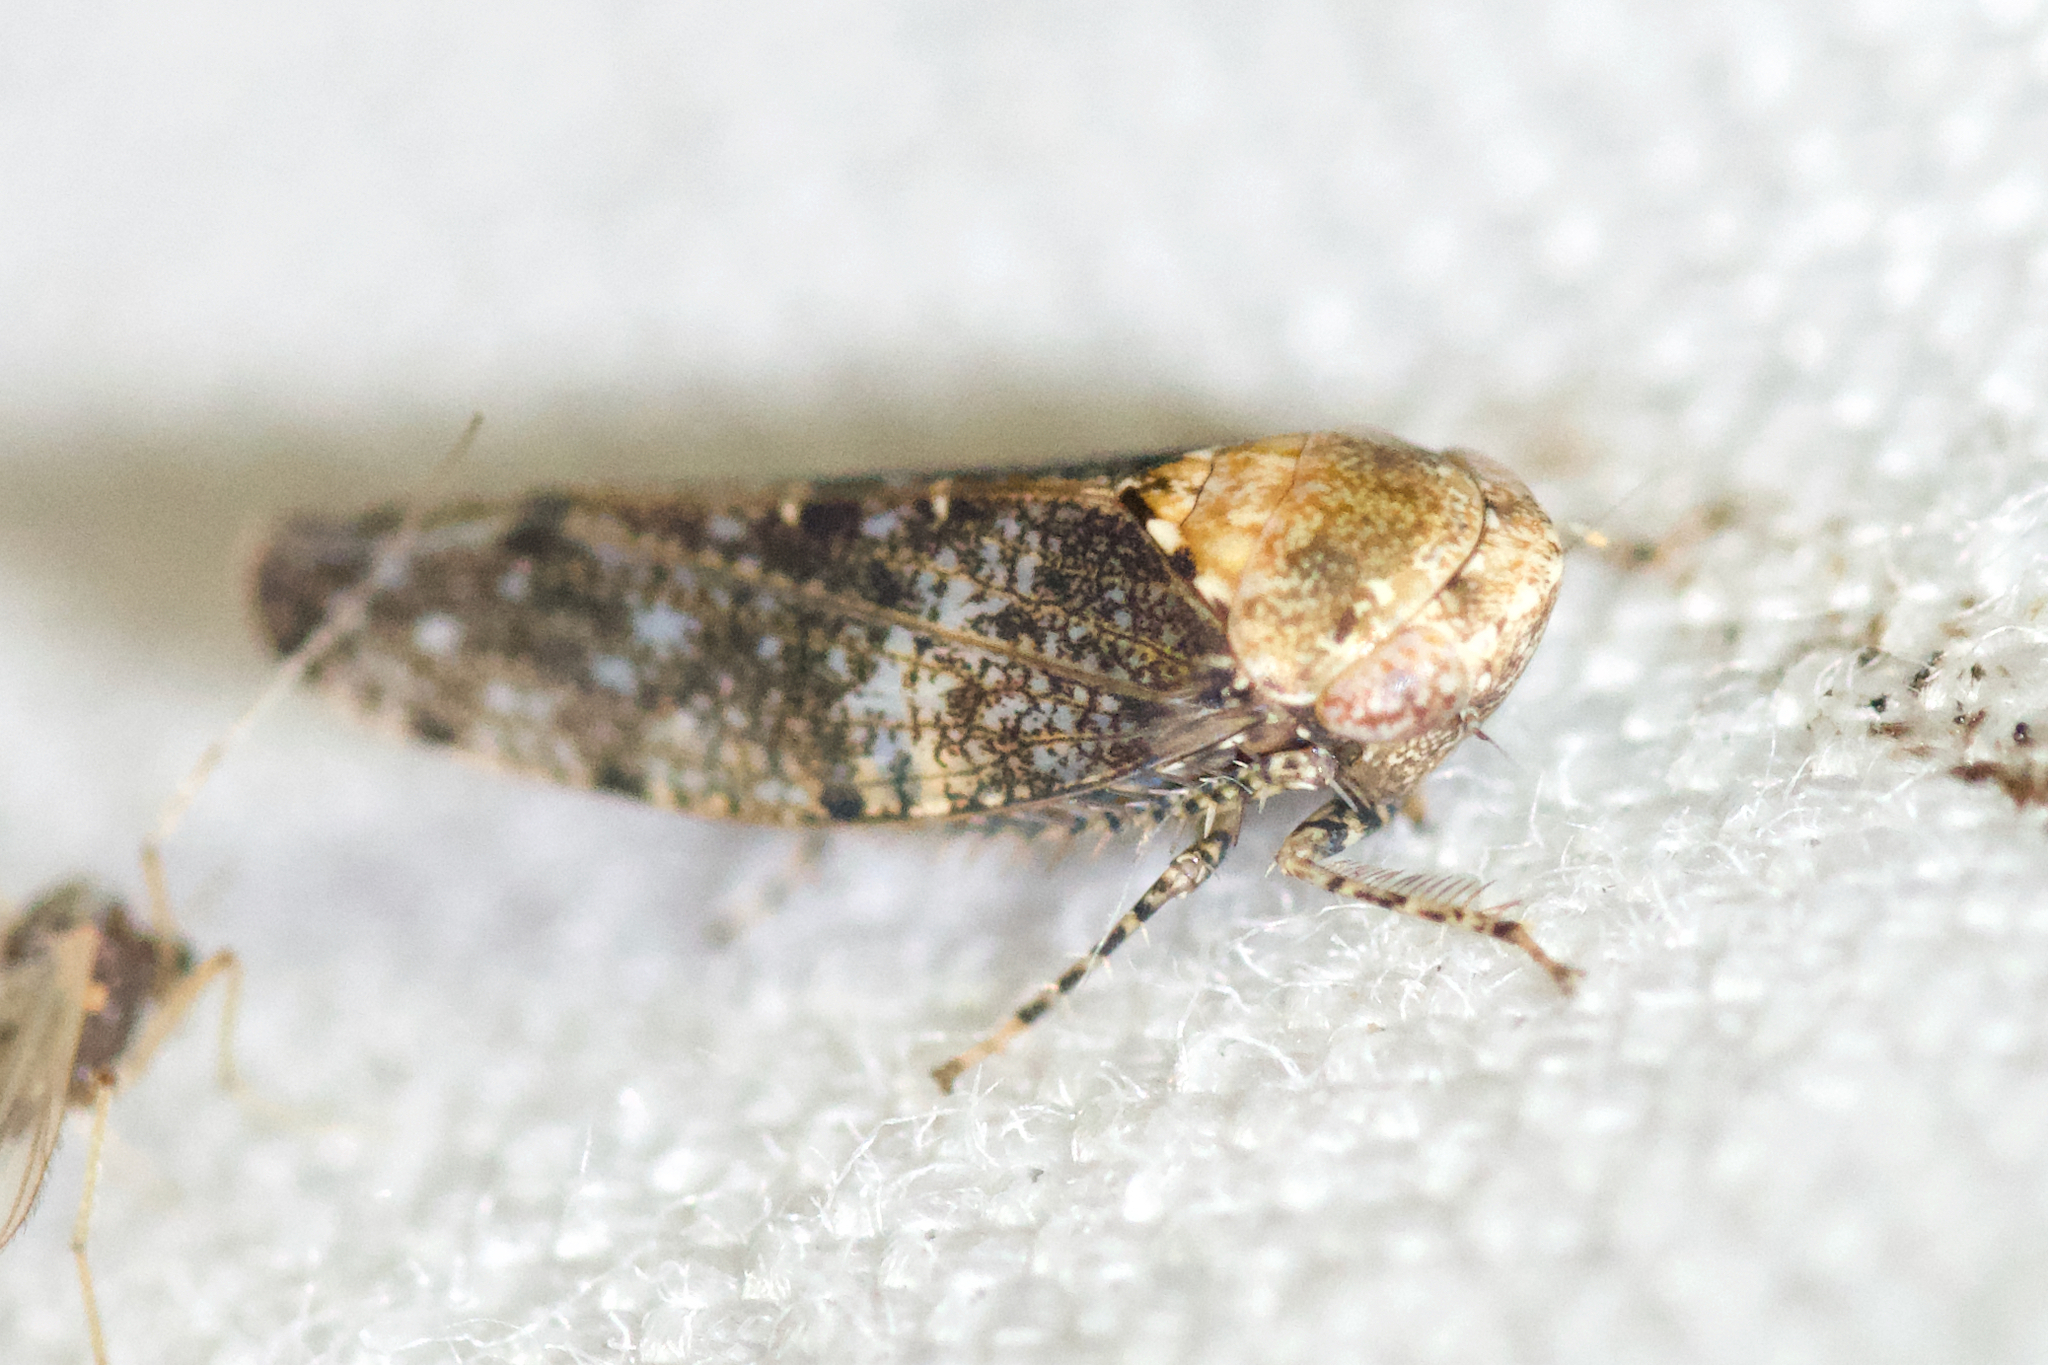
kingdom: Animalia
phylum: Arthropoda
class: Insecta
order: Hemiptera
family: Cicadellidae
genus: Paraphlepsius
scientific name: Paraphlepsius collitus
